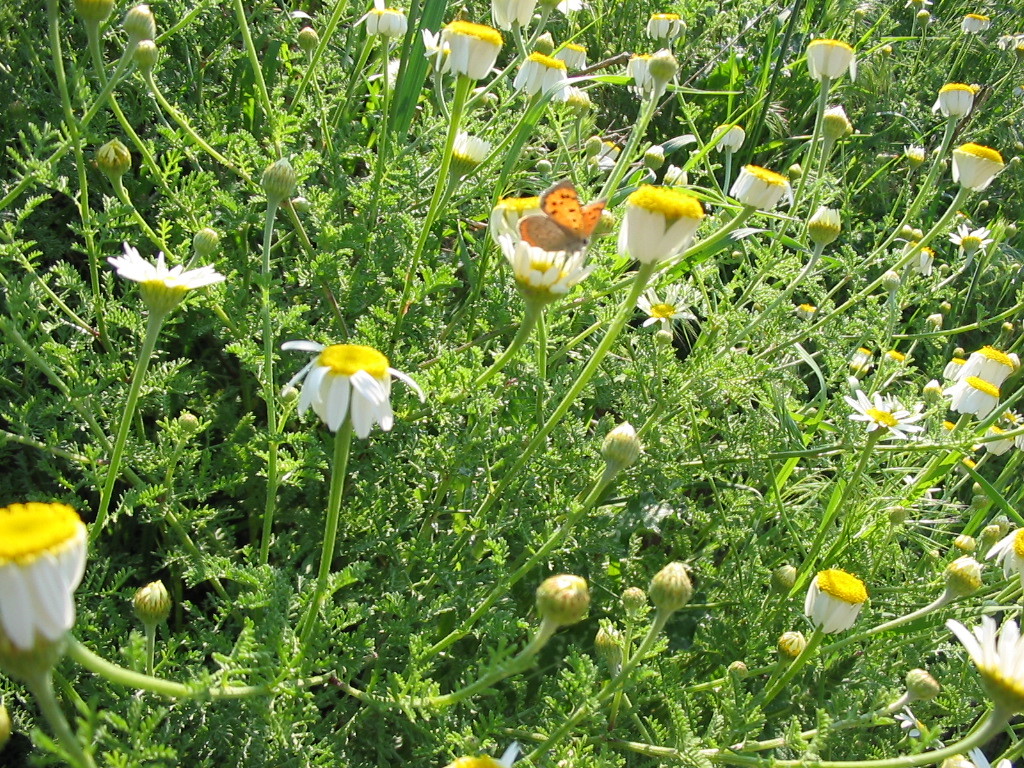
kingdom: Animalia
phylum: Arthropoda
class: Insecta
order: Lepidoptera
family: Lycaenidae
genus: Lycaena
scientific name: Lycaena phlaeas
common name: Small copper
